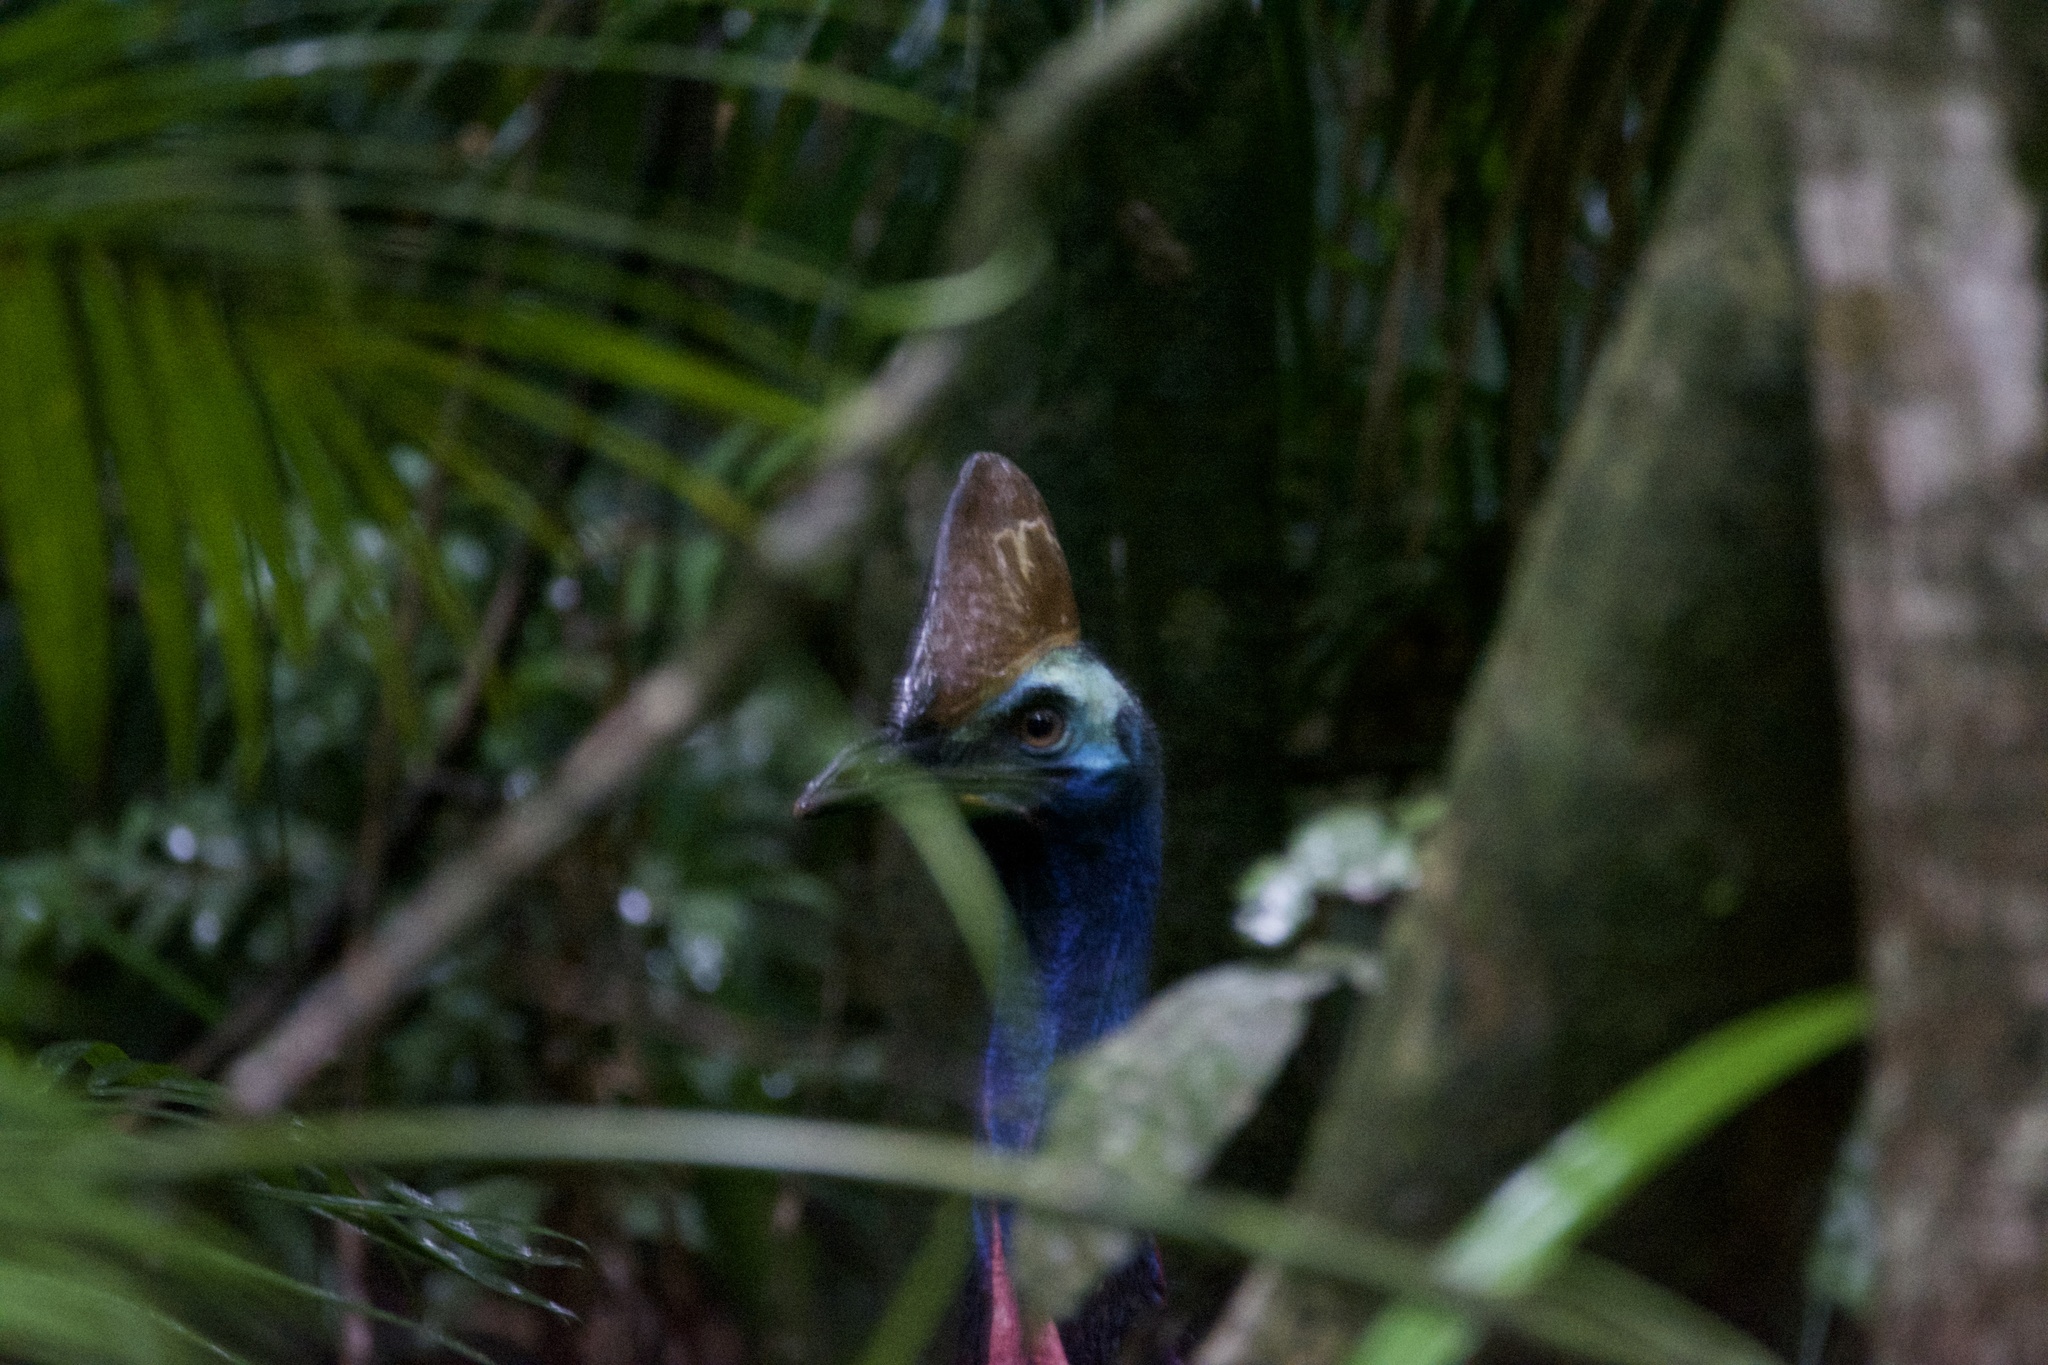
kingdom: Animalia
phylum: Chordata
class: Aves
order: Casuariiformes
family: Casuariidae
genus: Casuarius
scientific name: Casuarius casuarius
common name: Southern cassowary
